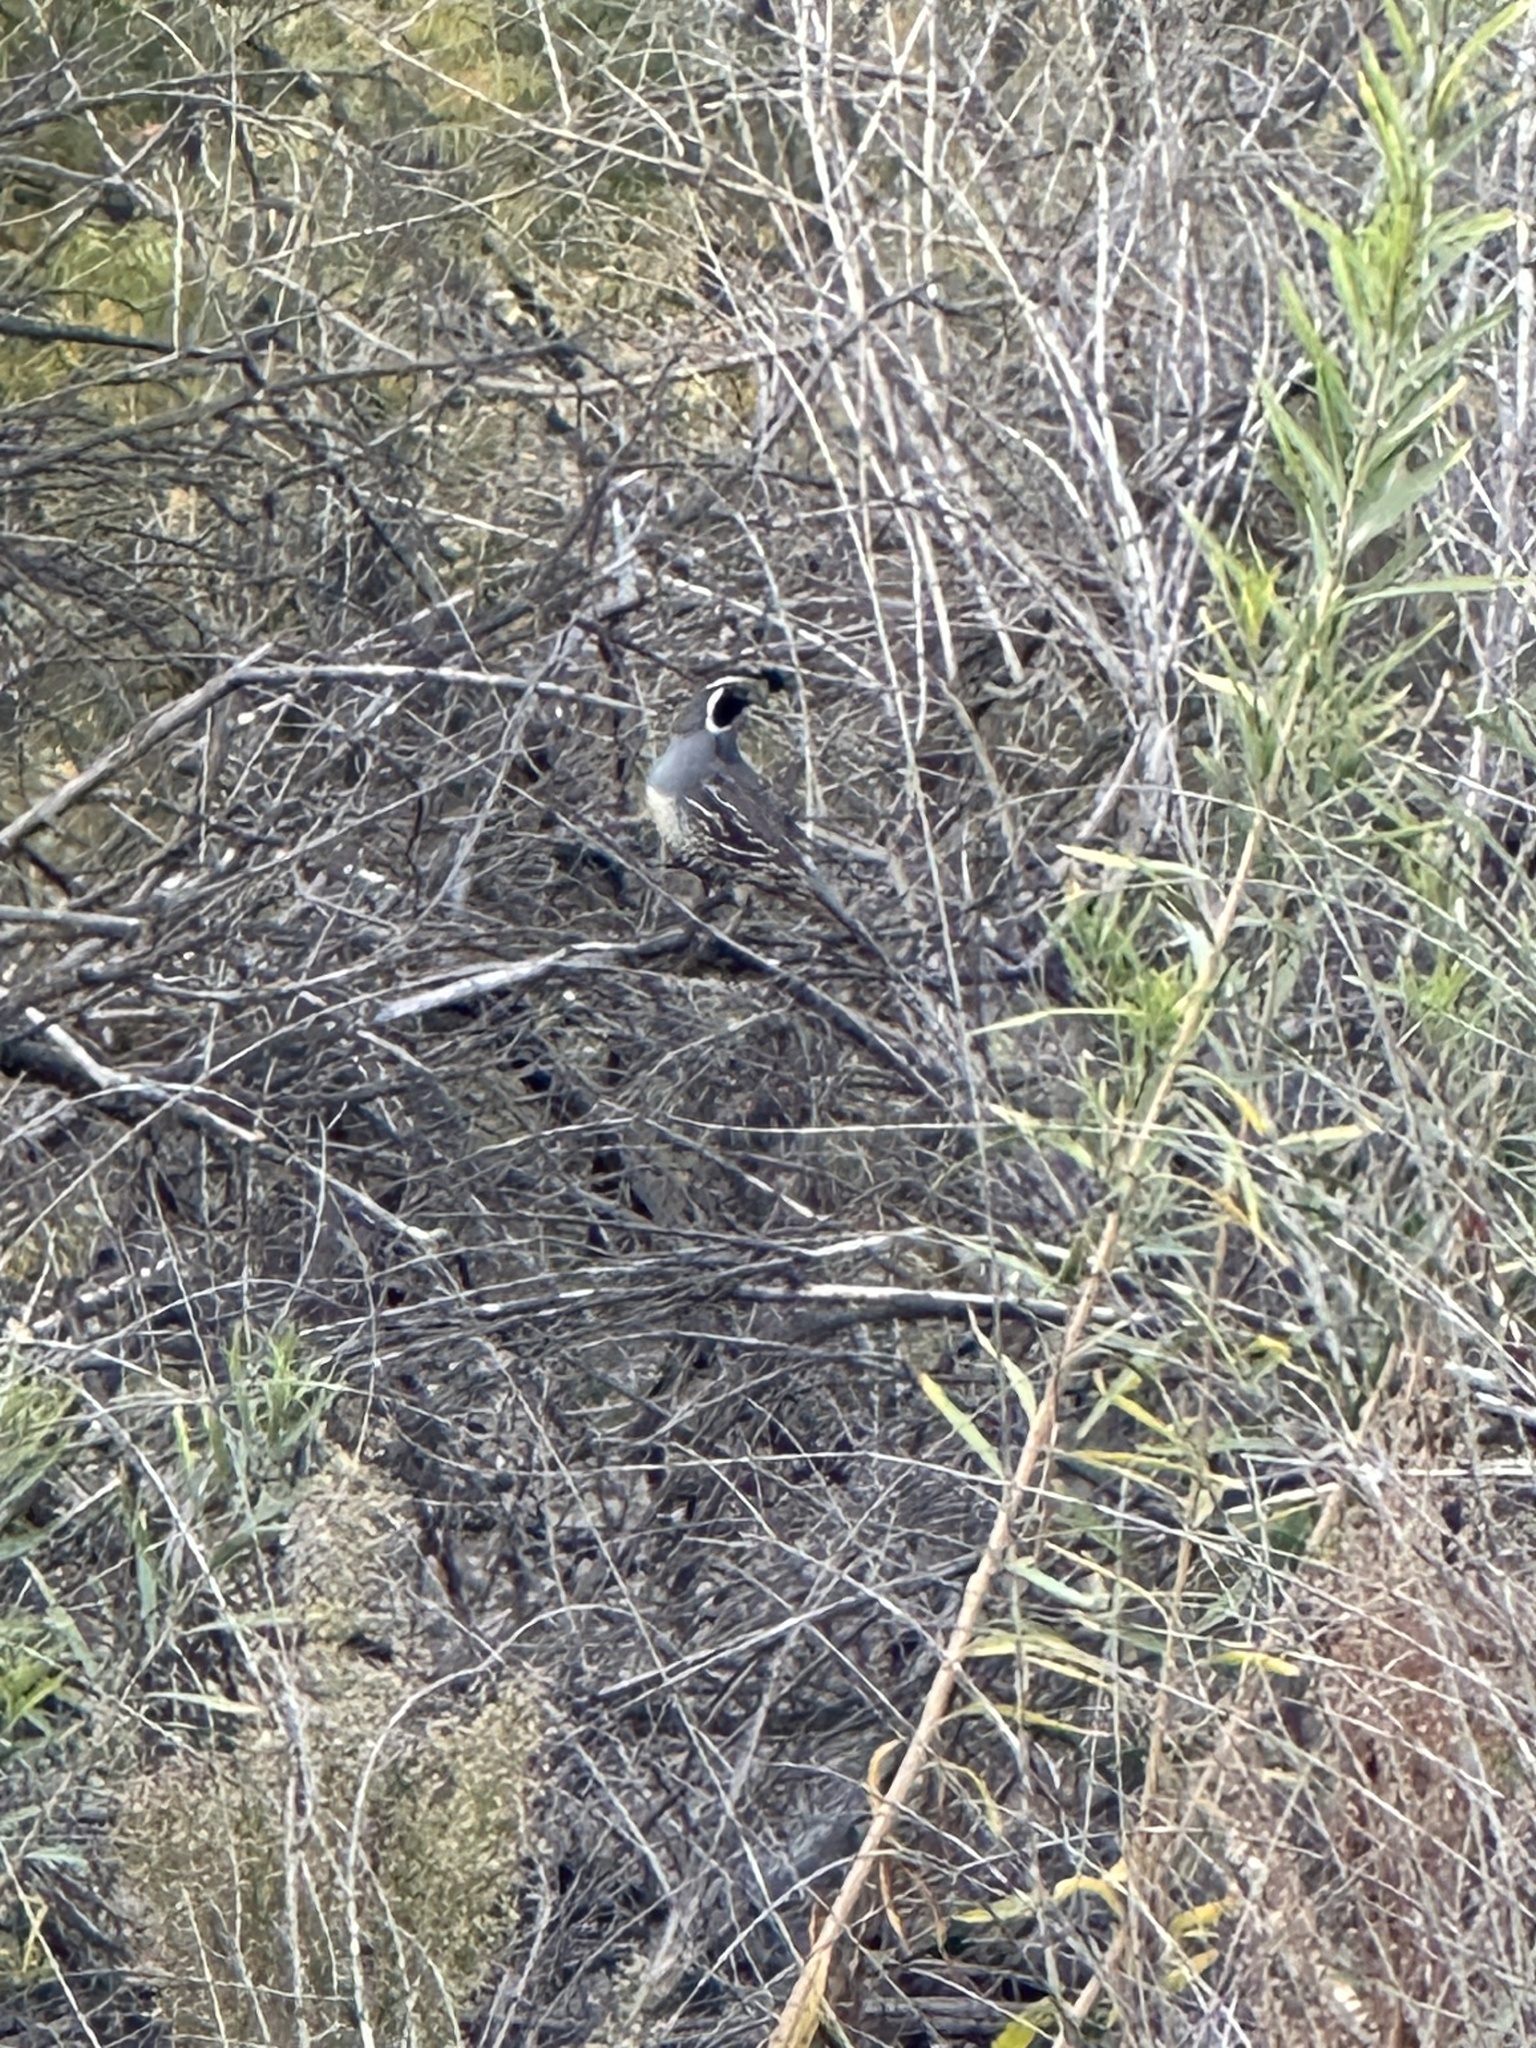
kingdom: Animalia
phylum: Chordata
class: Aves
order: Galliformes
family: Odontophoridae
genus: Callipepla
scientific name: Callipepla californica
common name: California quail
